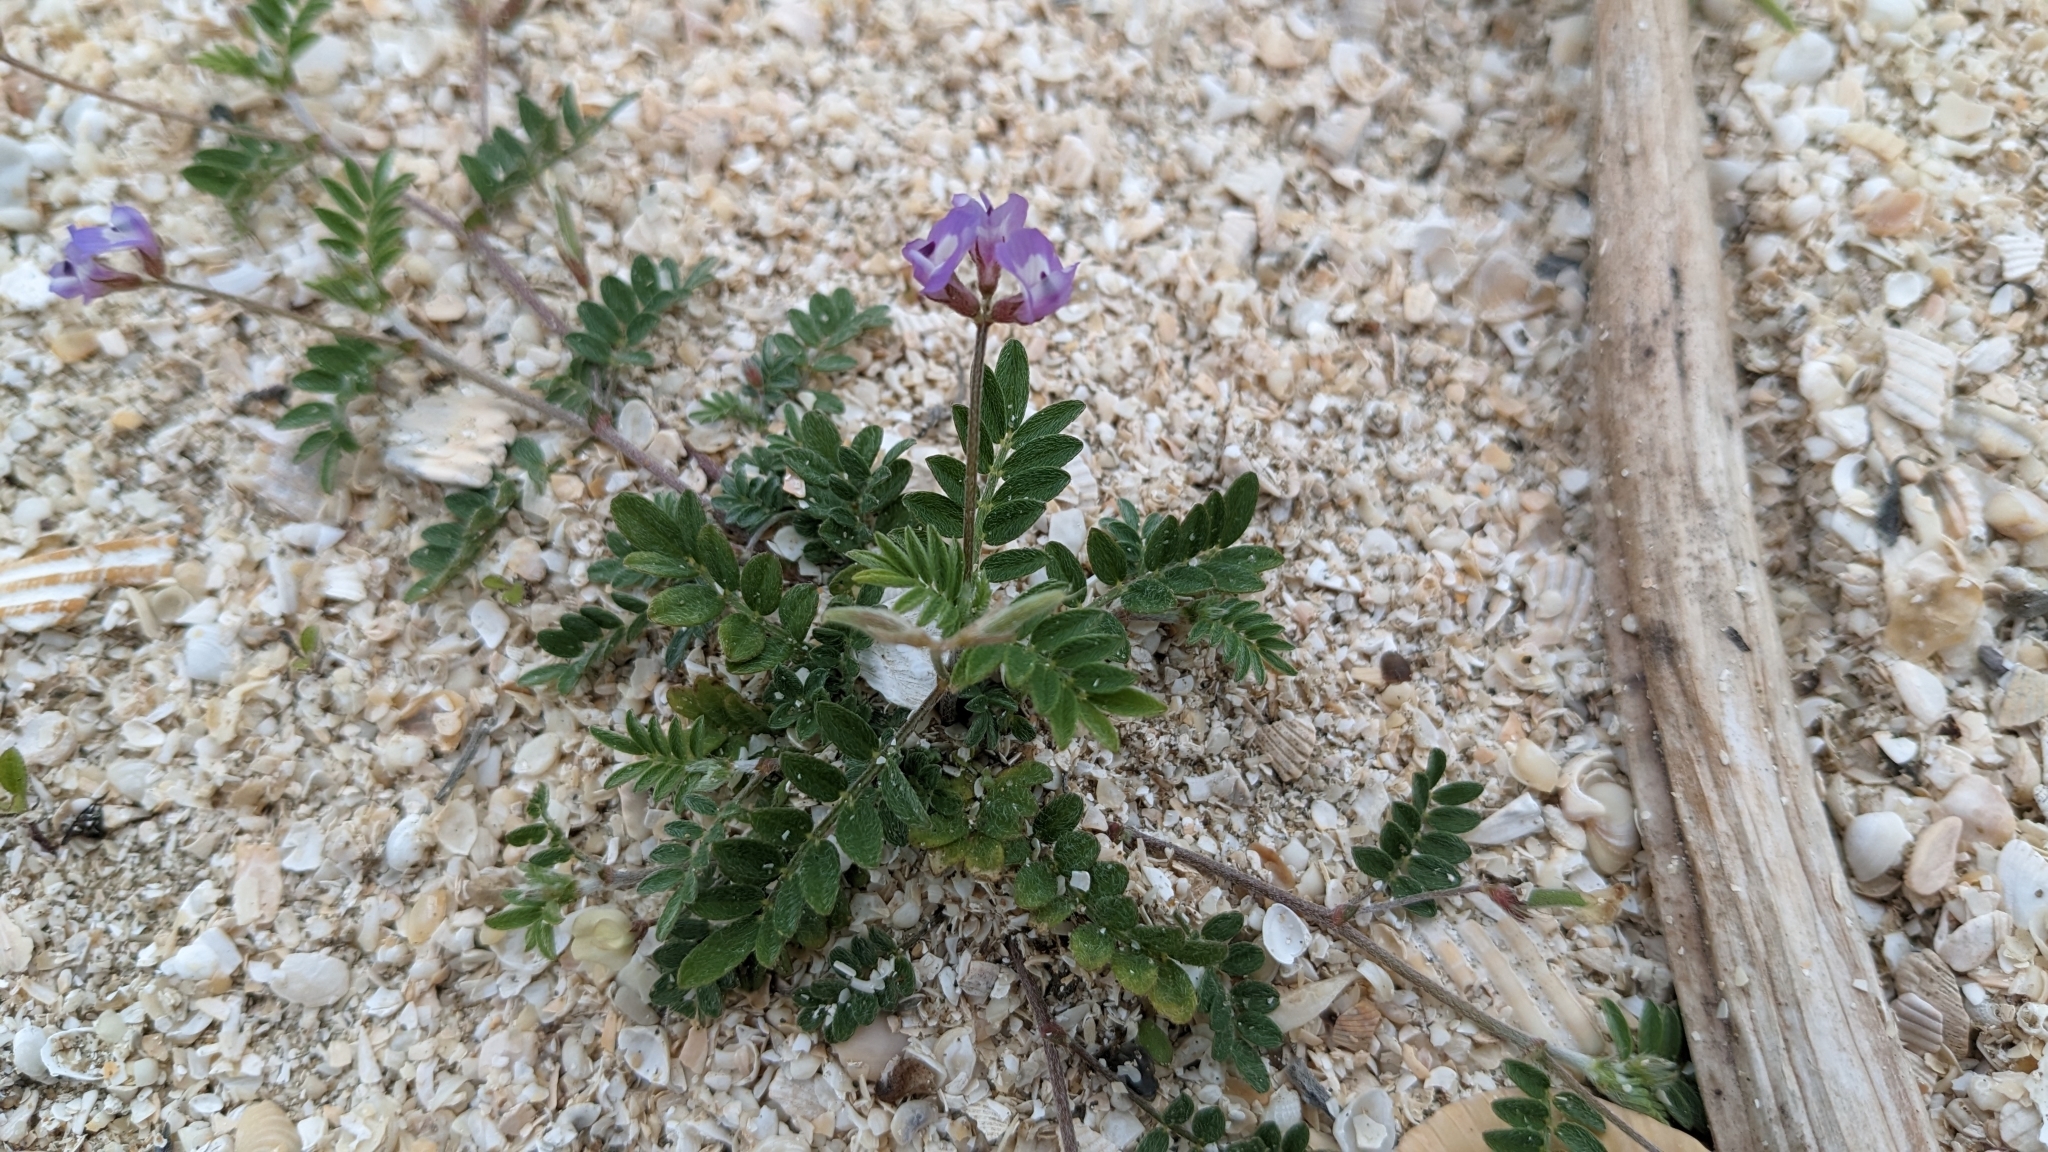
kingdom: Plantae
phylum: Tracheophyta
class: Magnoliopsida
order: Fabales
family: Fabaceae
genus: Astragalus
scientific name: Astragalus nuttallianus
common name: Smallflowered milkvetch
